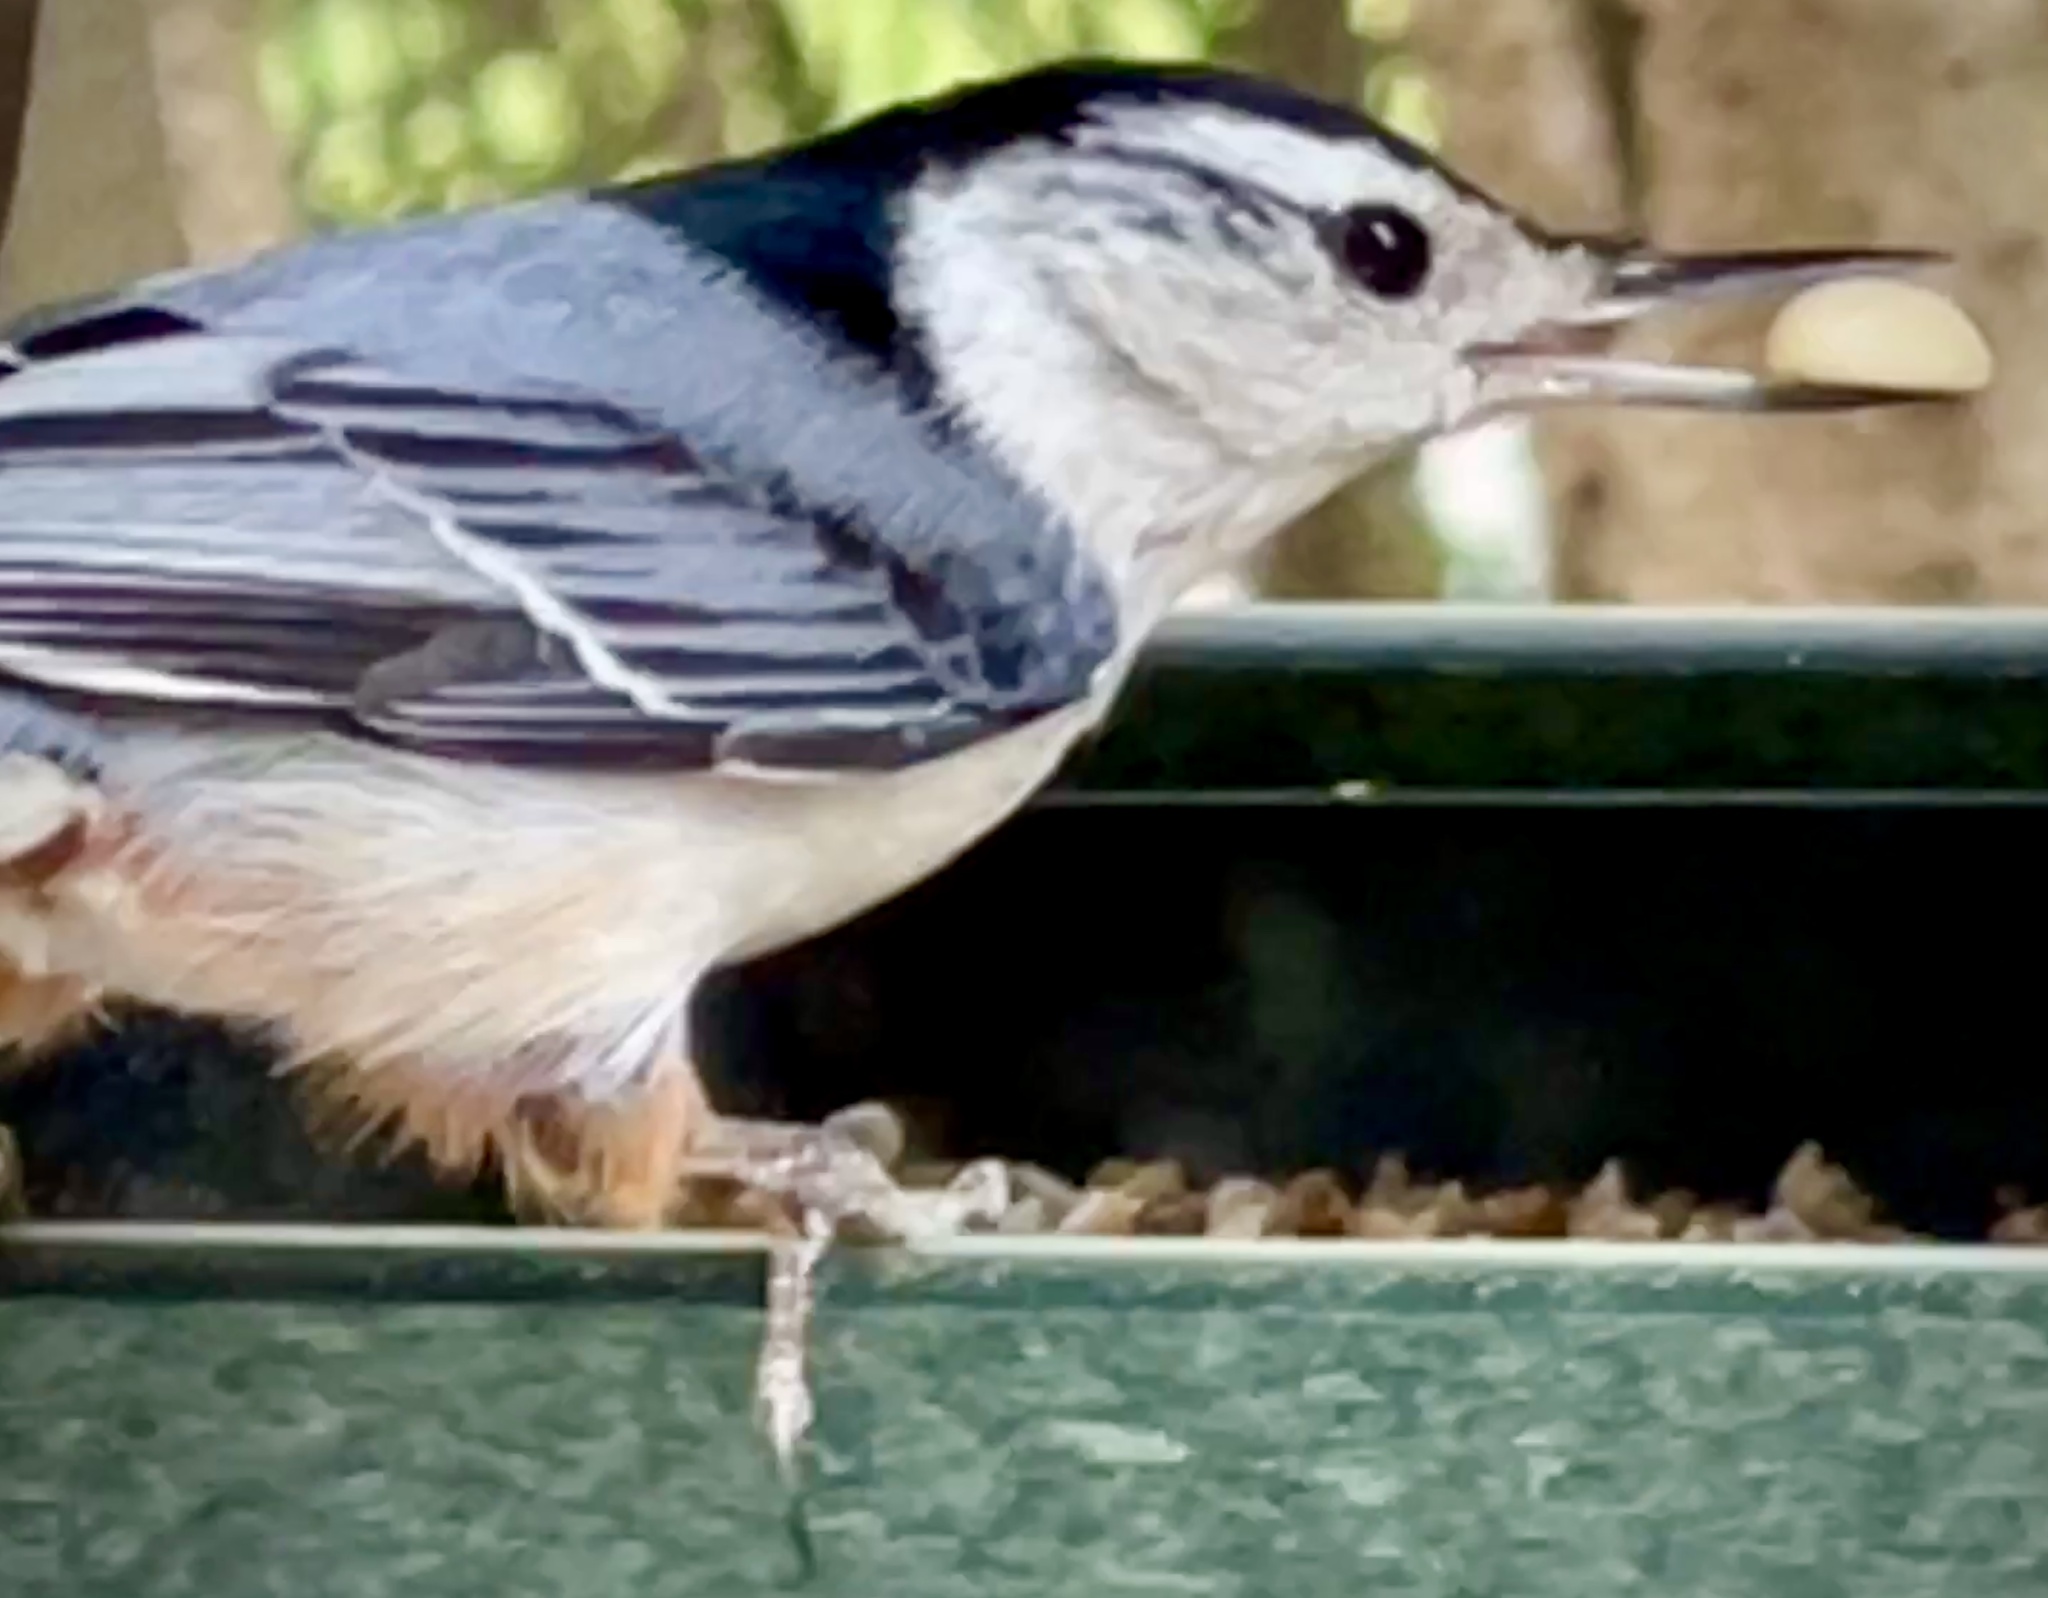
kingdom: Animalia
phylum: Chordata
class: Aves
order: Passeriformes
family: Sittidae
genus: Sitta
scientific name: Sitta carolinensis
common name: White-breasted nuthatch
